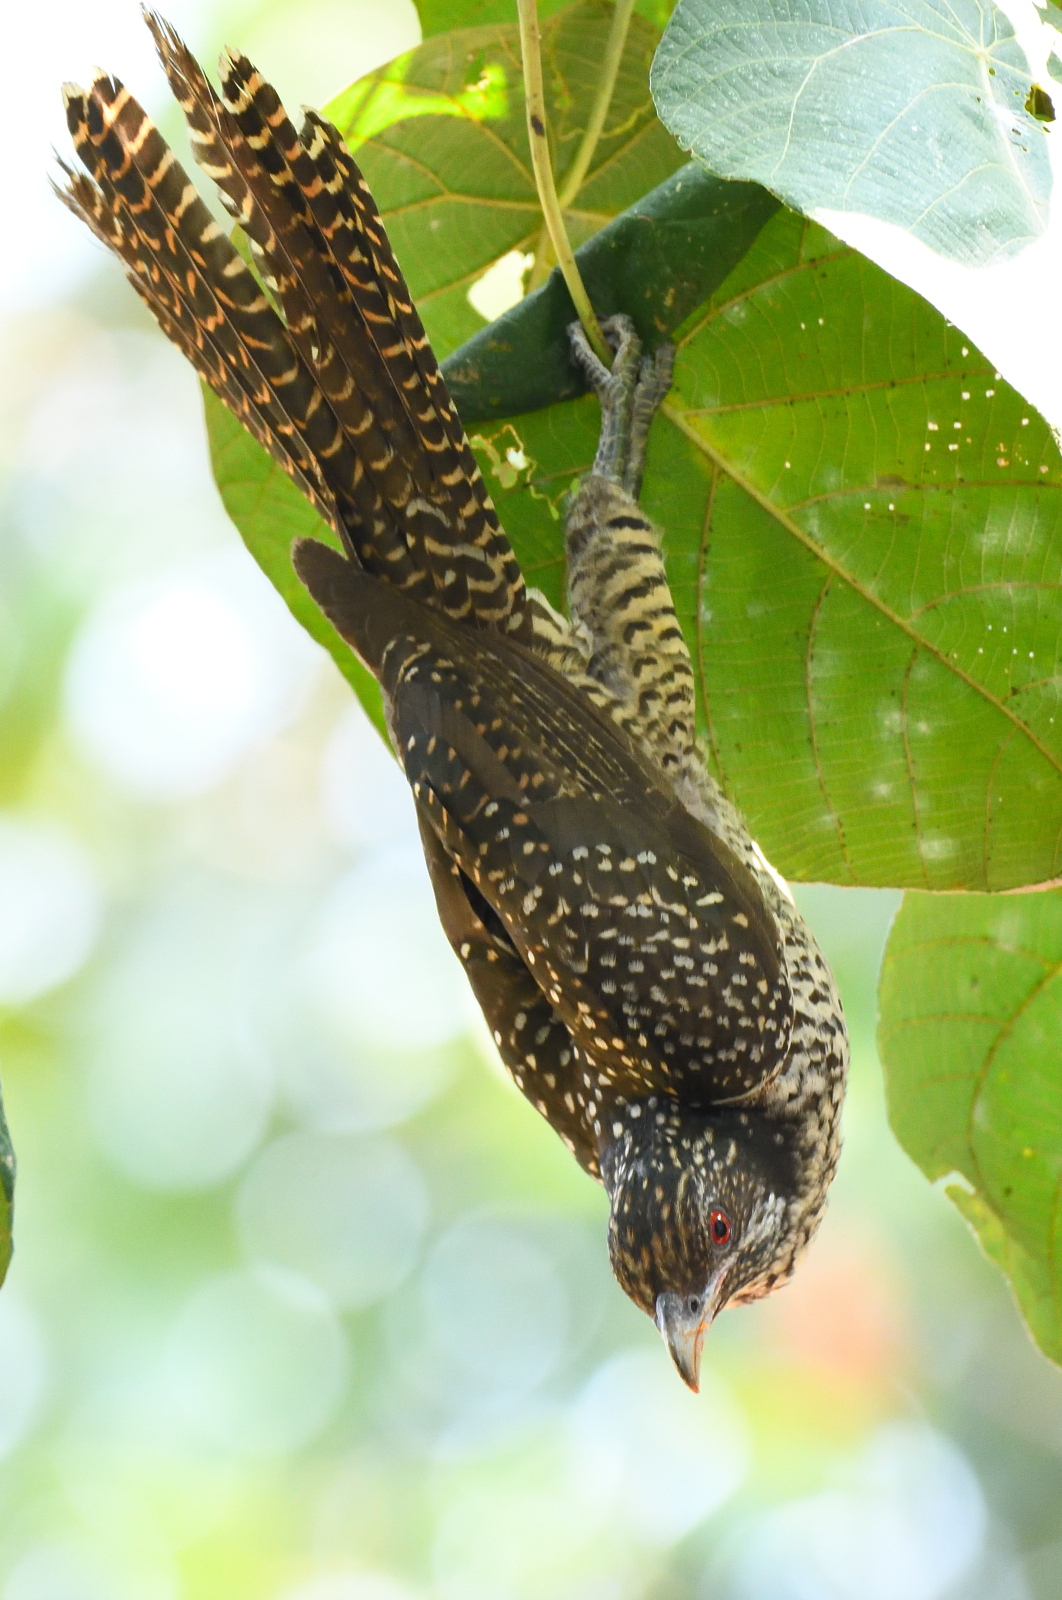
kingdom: Animalia
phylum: Chordata
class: Aves
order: Cuculiformes
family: Cuculidae
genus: Eudynamys
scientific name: Eudynamys scolopaceus
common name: Asian koel
